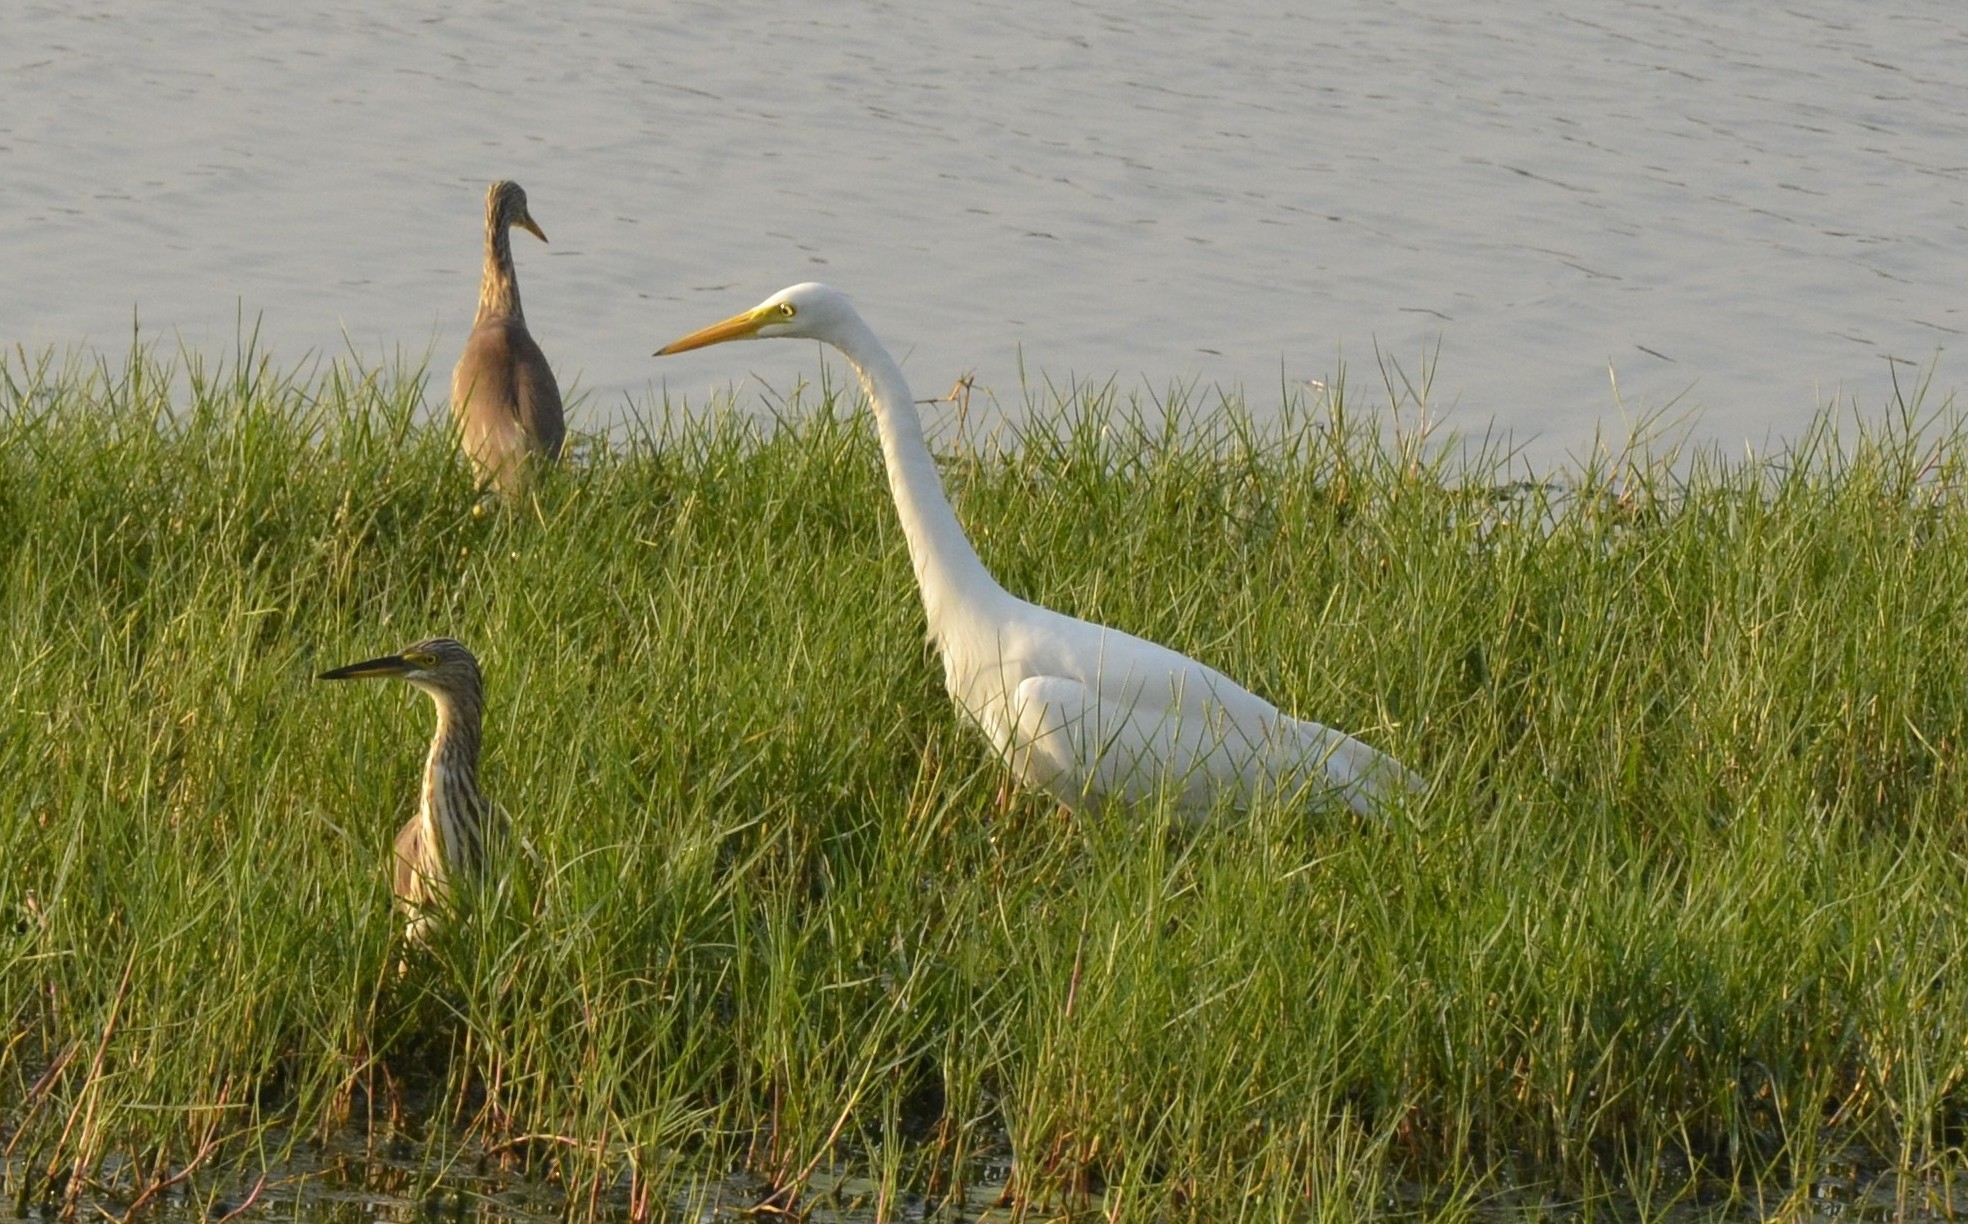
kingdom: Animalia
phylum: Chordata
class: Aves
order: Pelecaniformes
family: Ardeidae
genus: Egretta
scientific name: Egretta intermedia
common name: Intermediate egret
